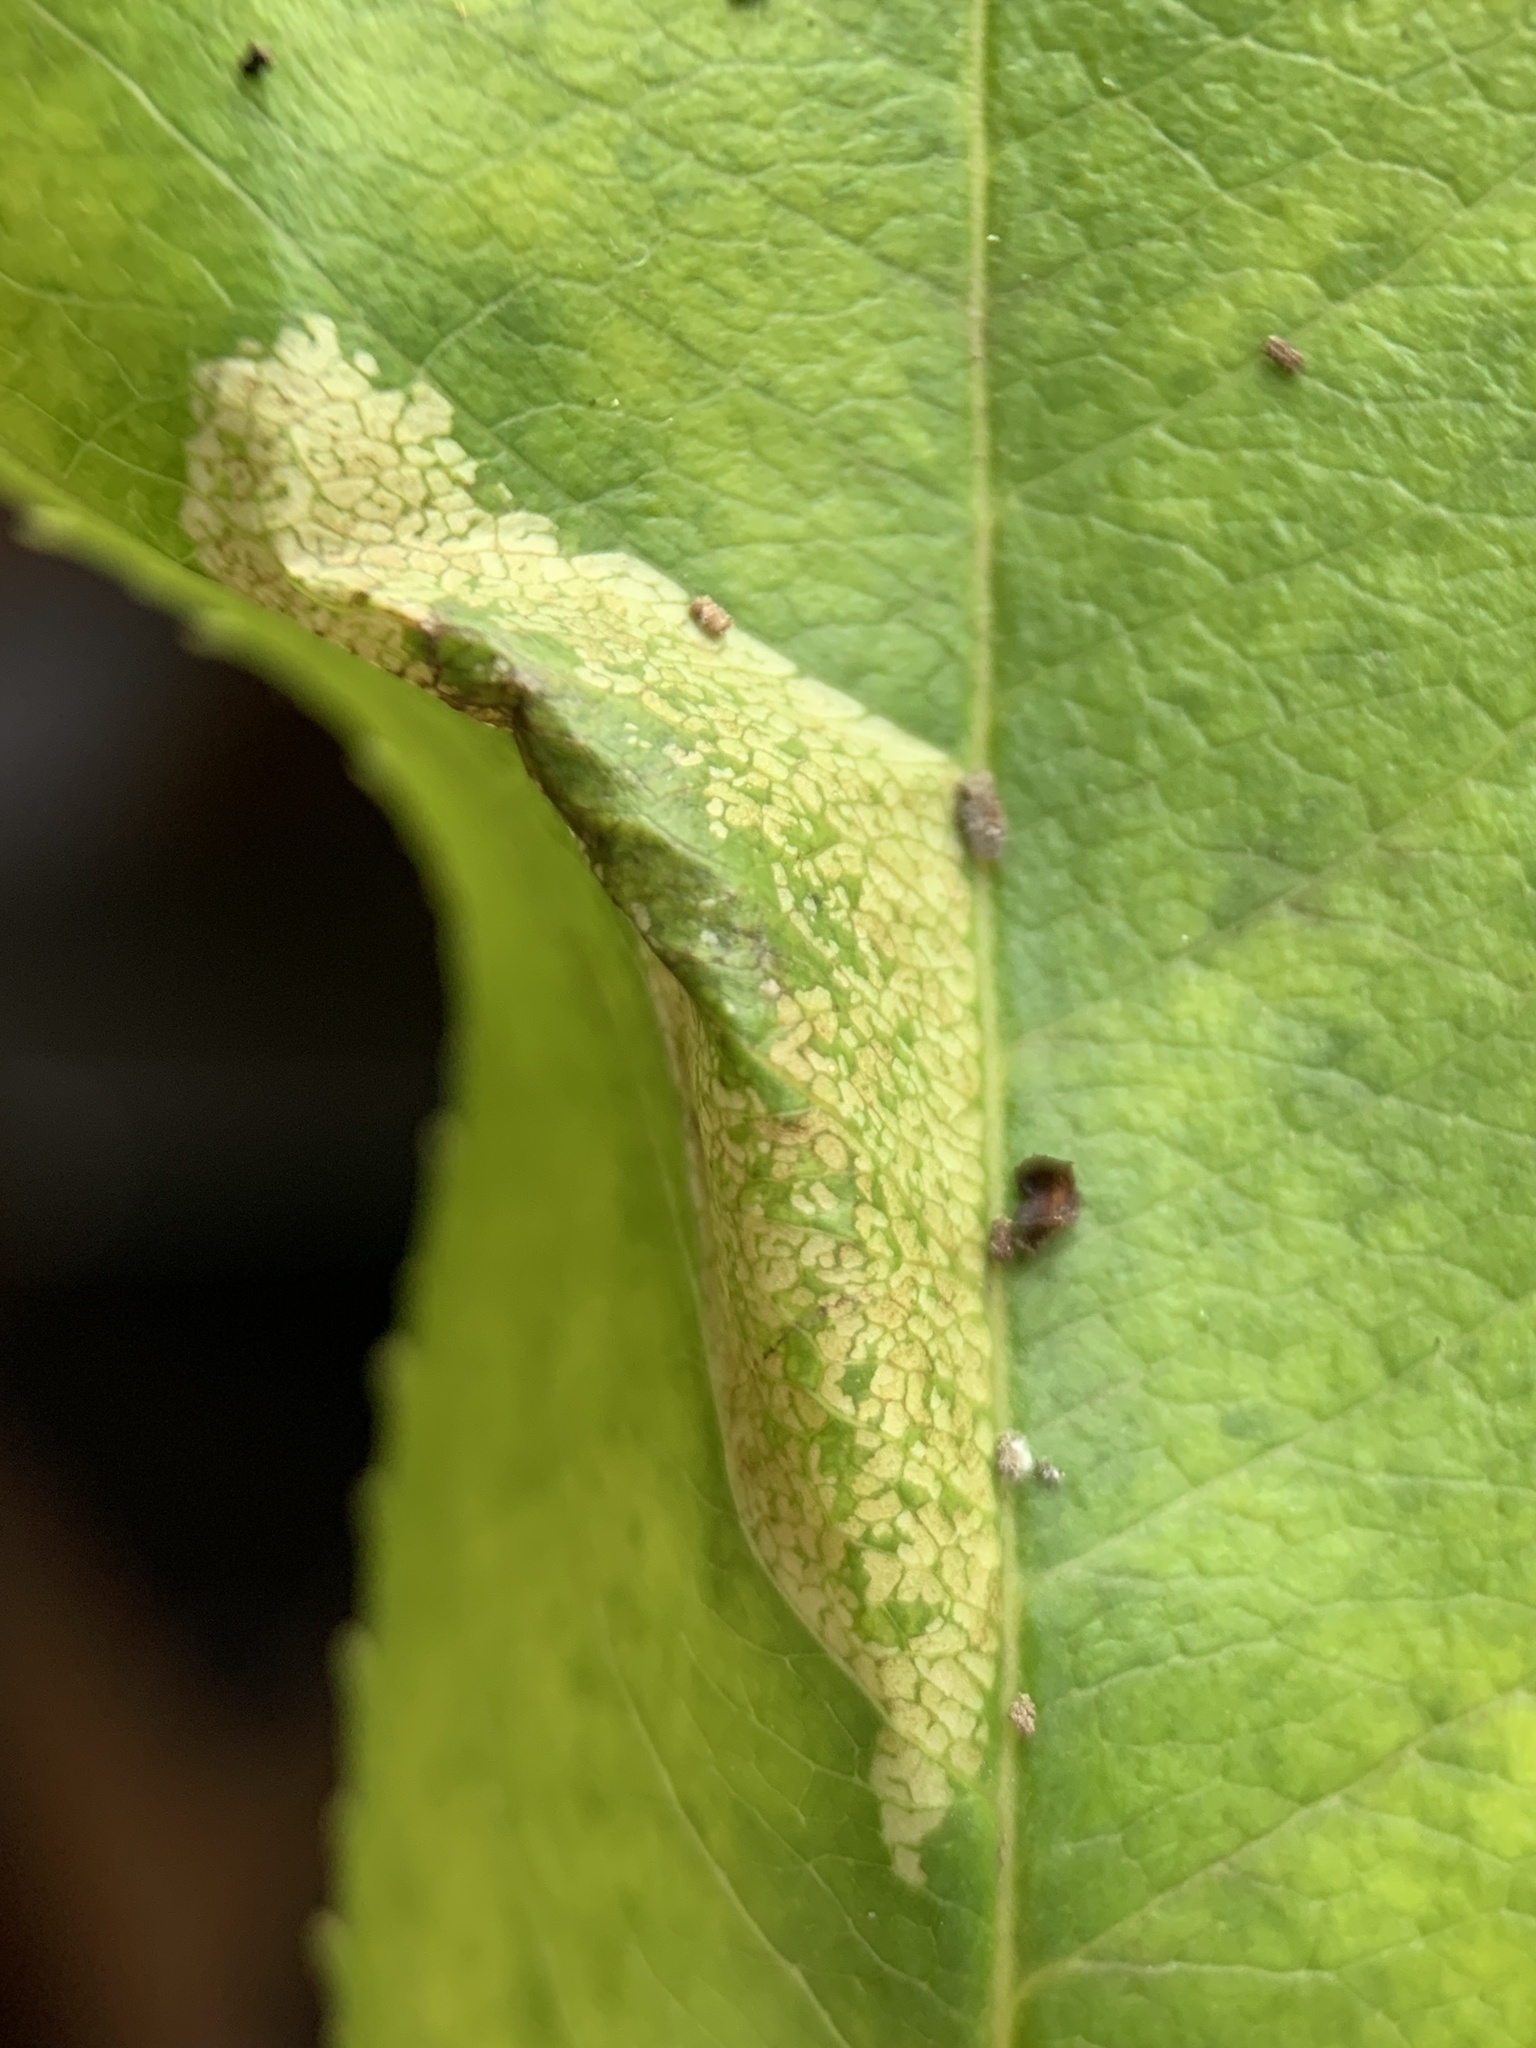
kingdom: Animalia
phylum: Arthropoda
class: Insecta
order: Lepidoptera
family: Gracillariidae
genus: Phyllonorycter
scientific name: Phyllonorycter propinquinella
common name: Cherry blotchminer
